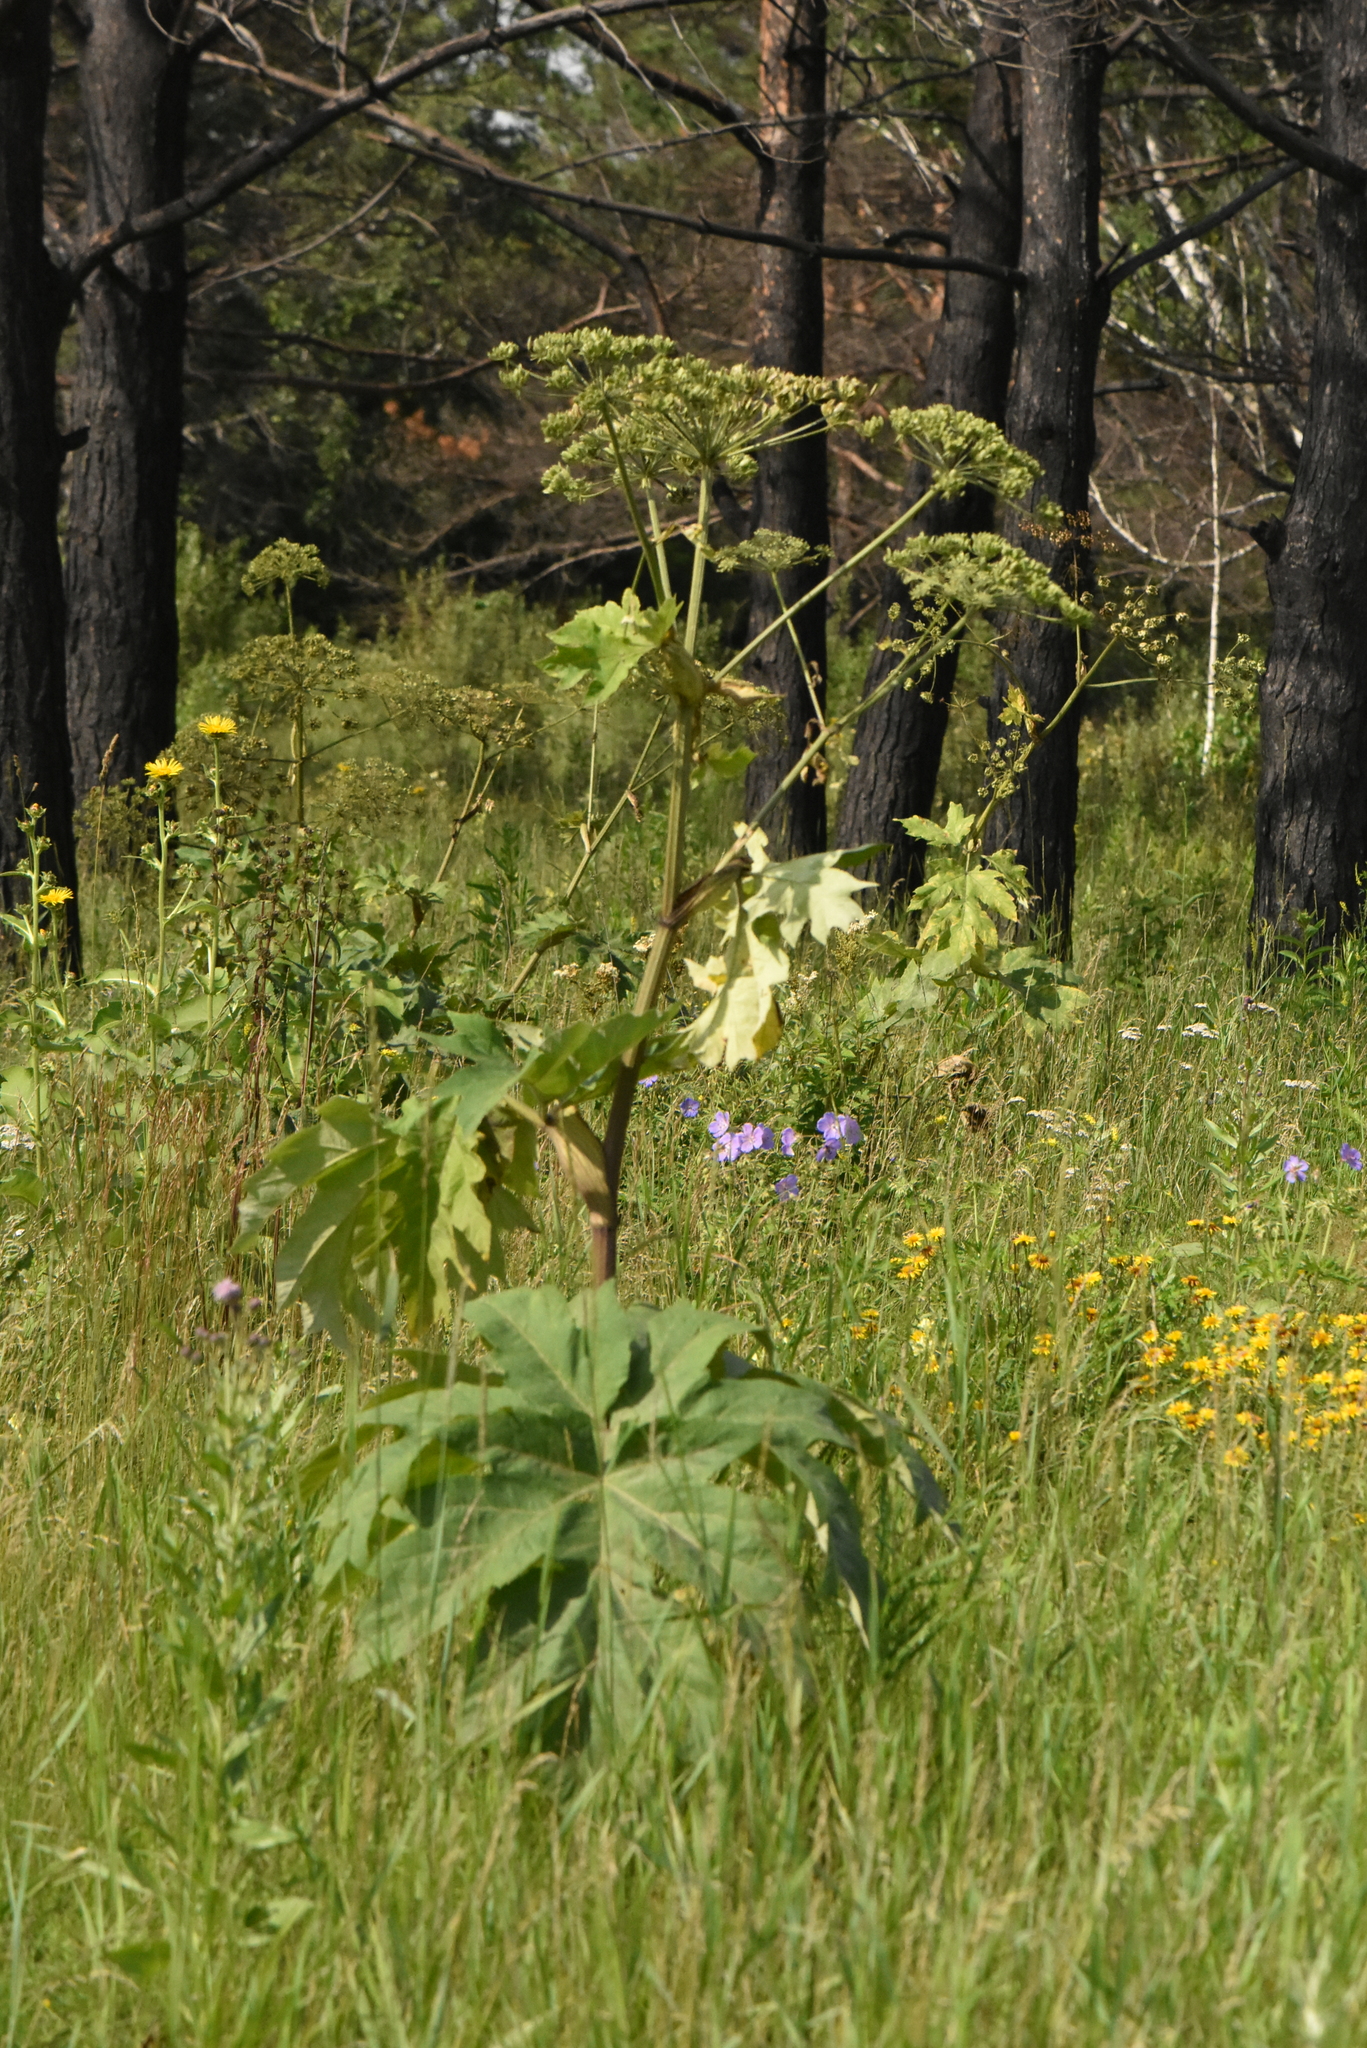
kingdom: Plantae
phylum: Tracheophyta
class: Magnoliopsida
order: Apiales
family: Apiaceae
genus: Heracleum
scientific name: Heracleum dissectum
